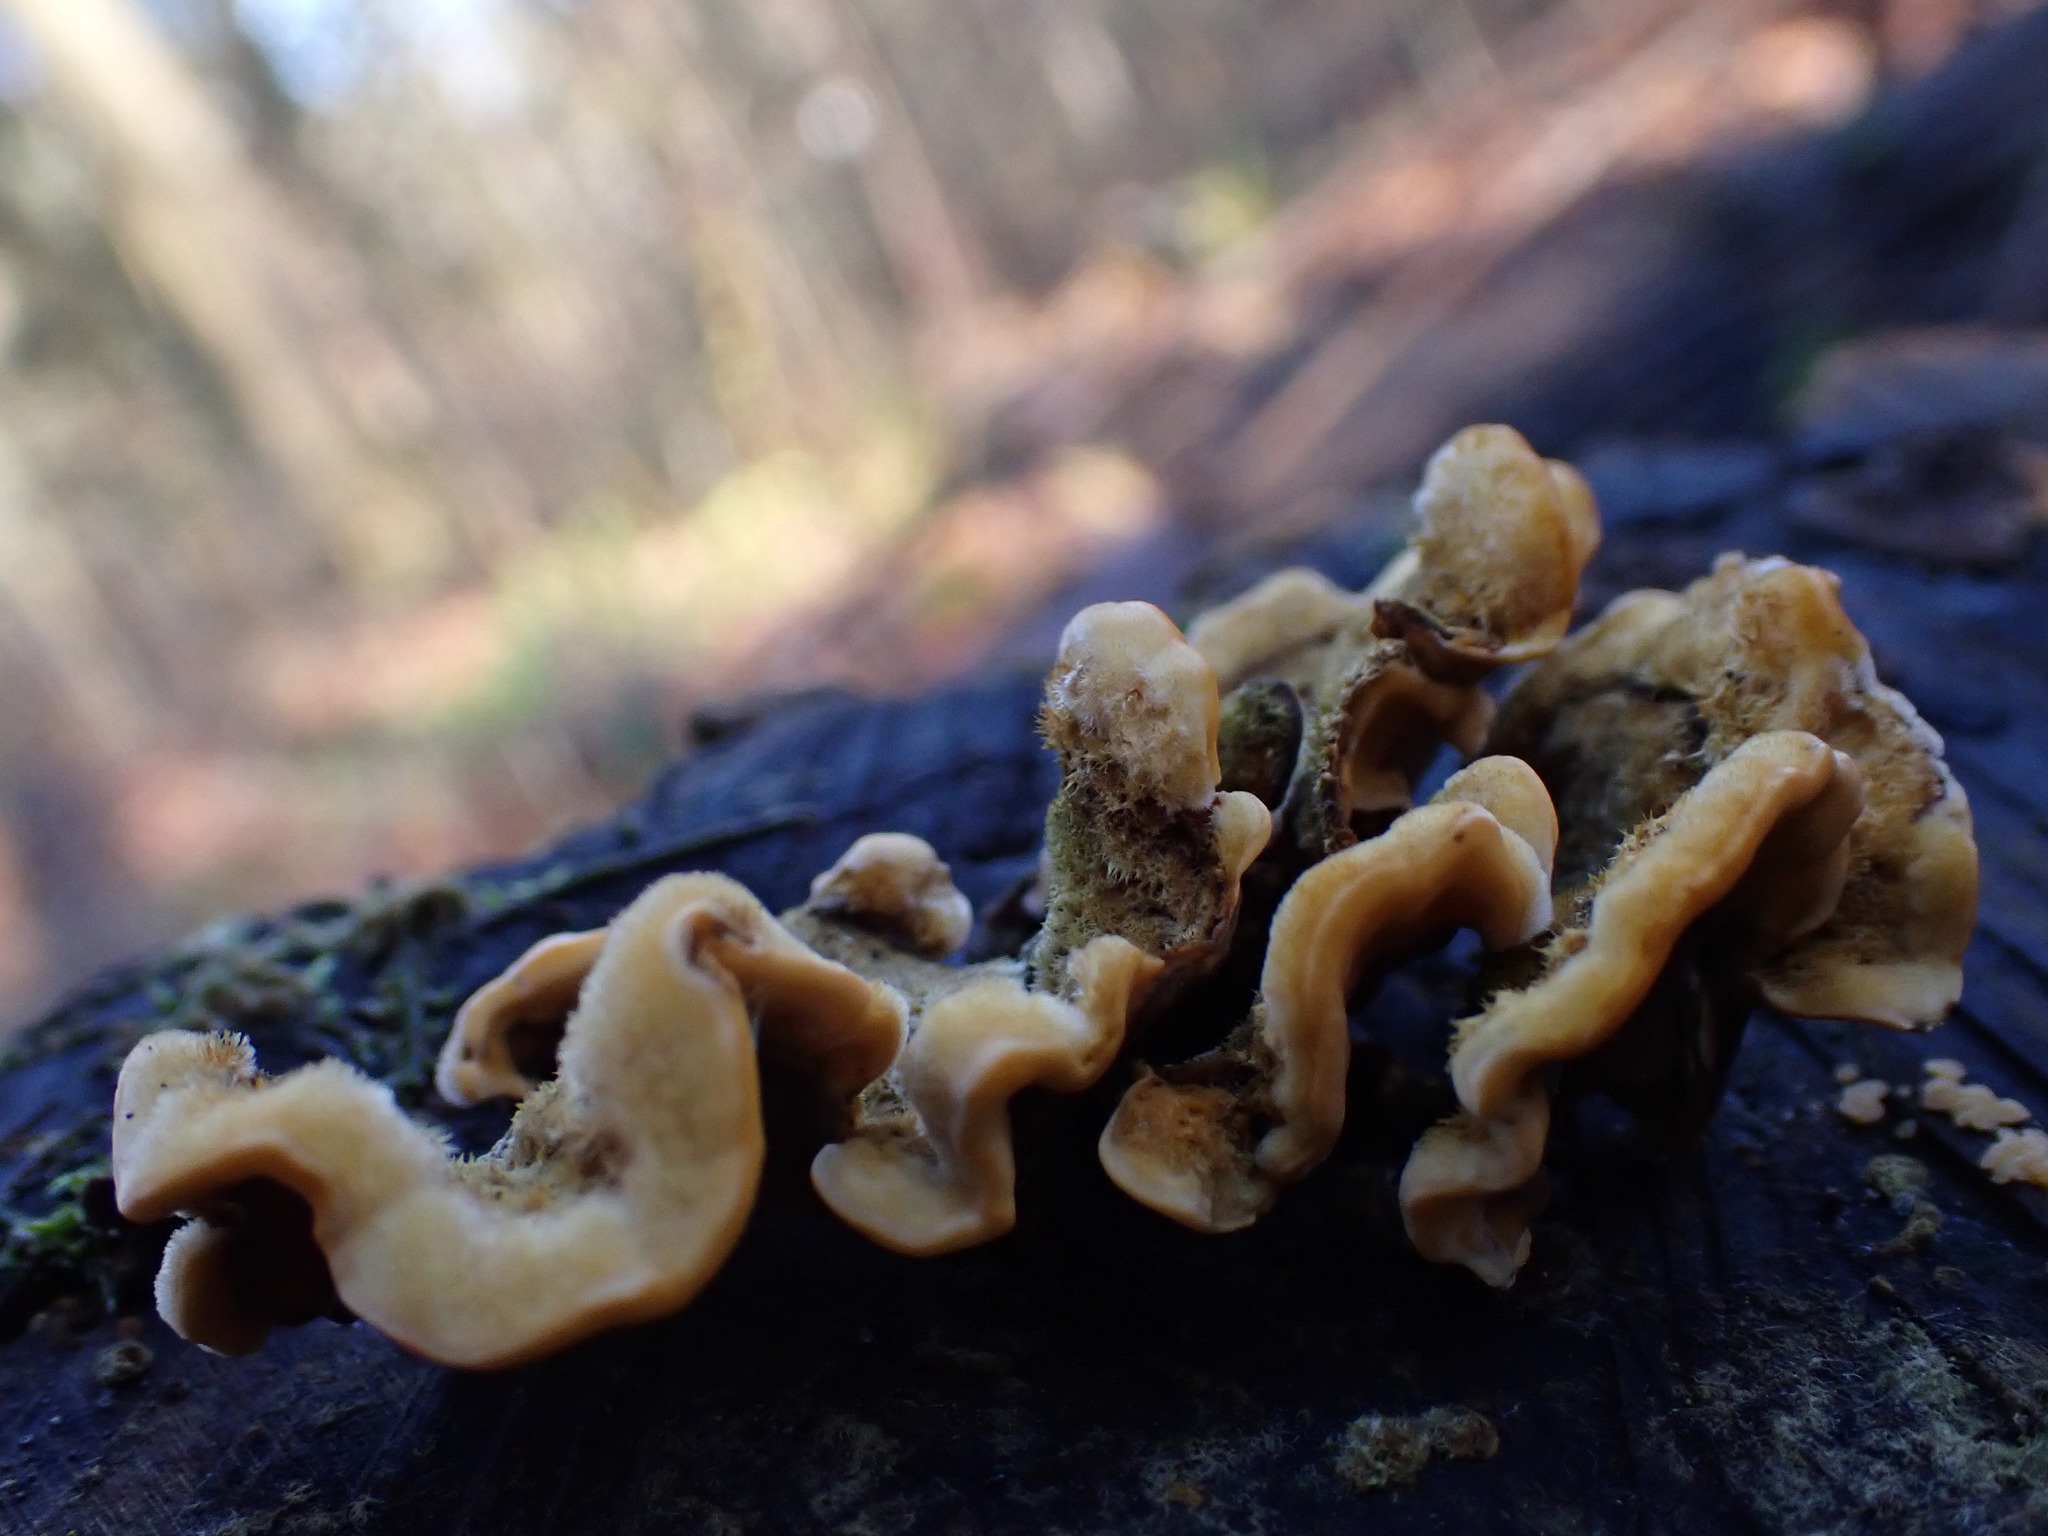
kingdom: Fungi
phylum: Basidiomycota
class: Agaricomycetes
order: Russulales
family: Stereaceae
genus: Stereum
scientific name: Stereum hirsutum
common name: Hairy curtain crust
